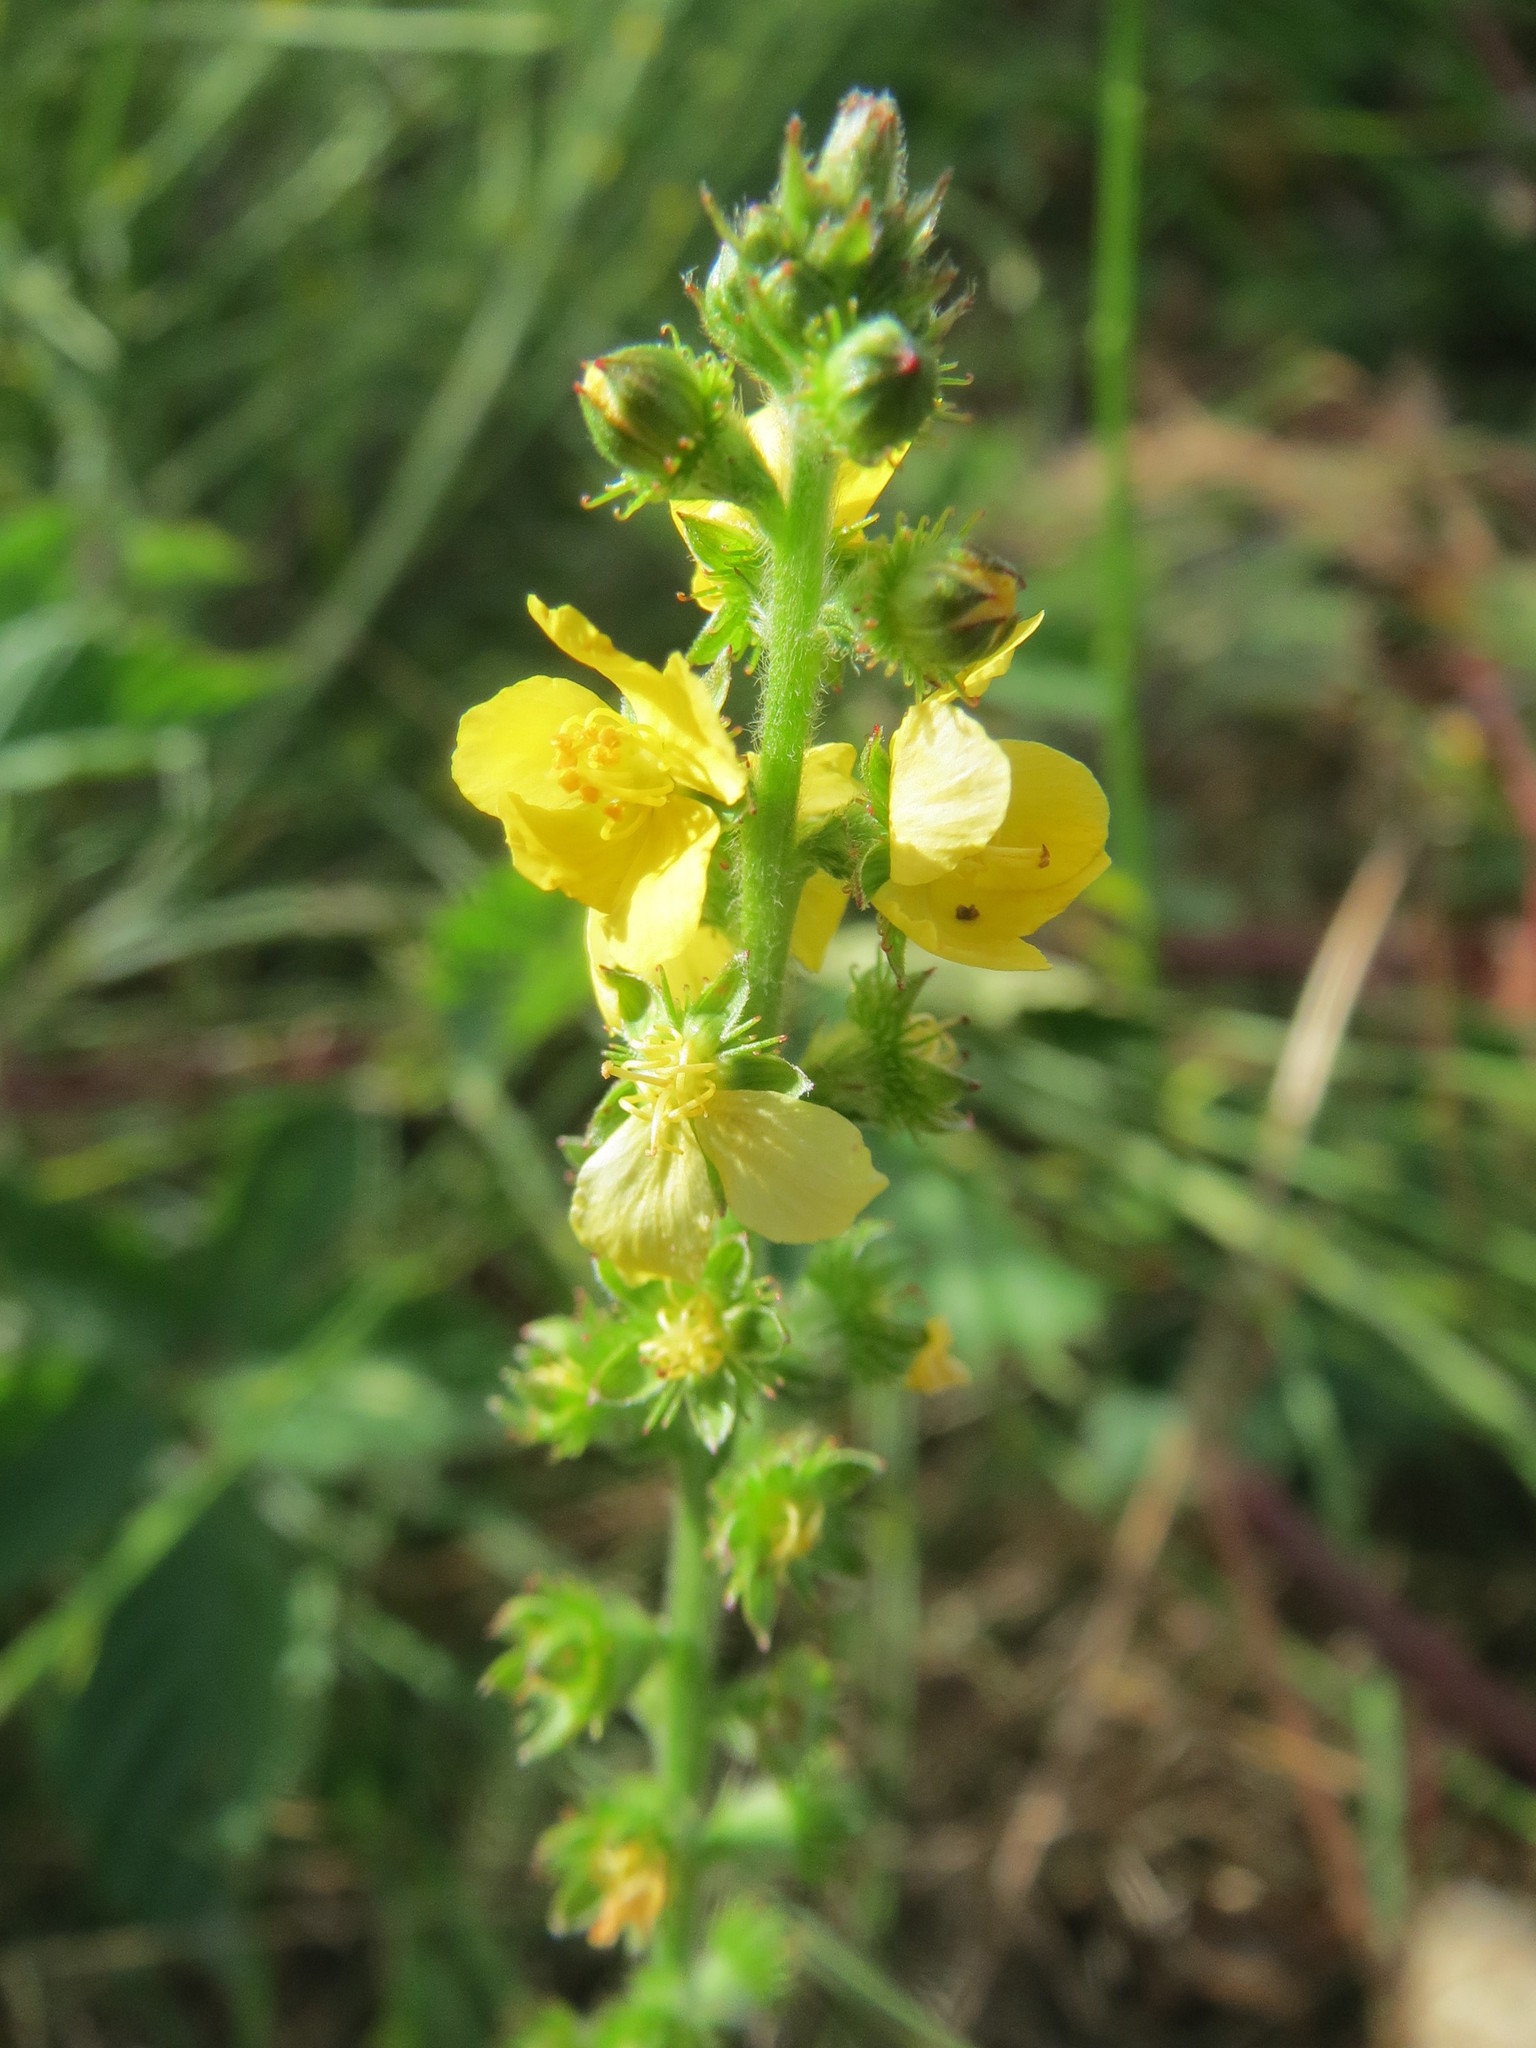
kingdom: Plantae
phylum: Tracheophyta
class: Magnoliopsida
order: Rosales
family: Rosaceae
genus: Agrimonia
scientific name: Agrimonia eupatoria
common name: Agrimony
